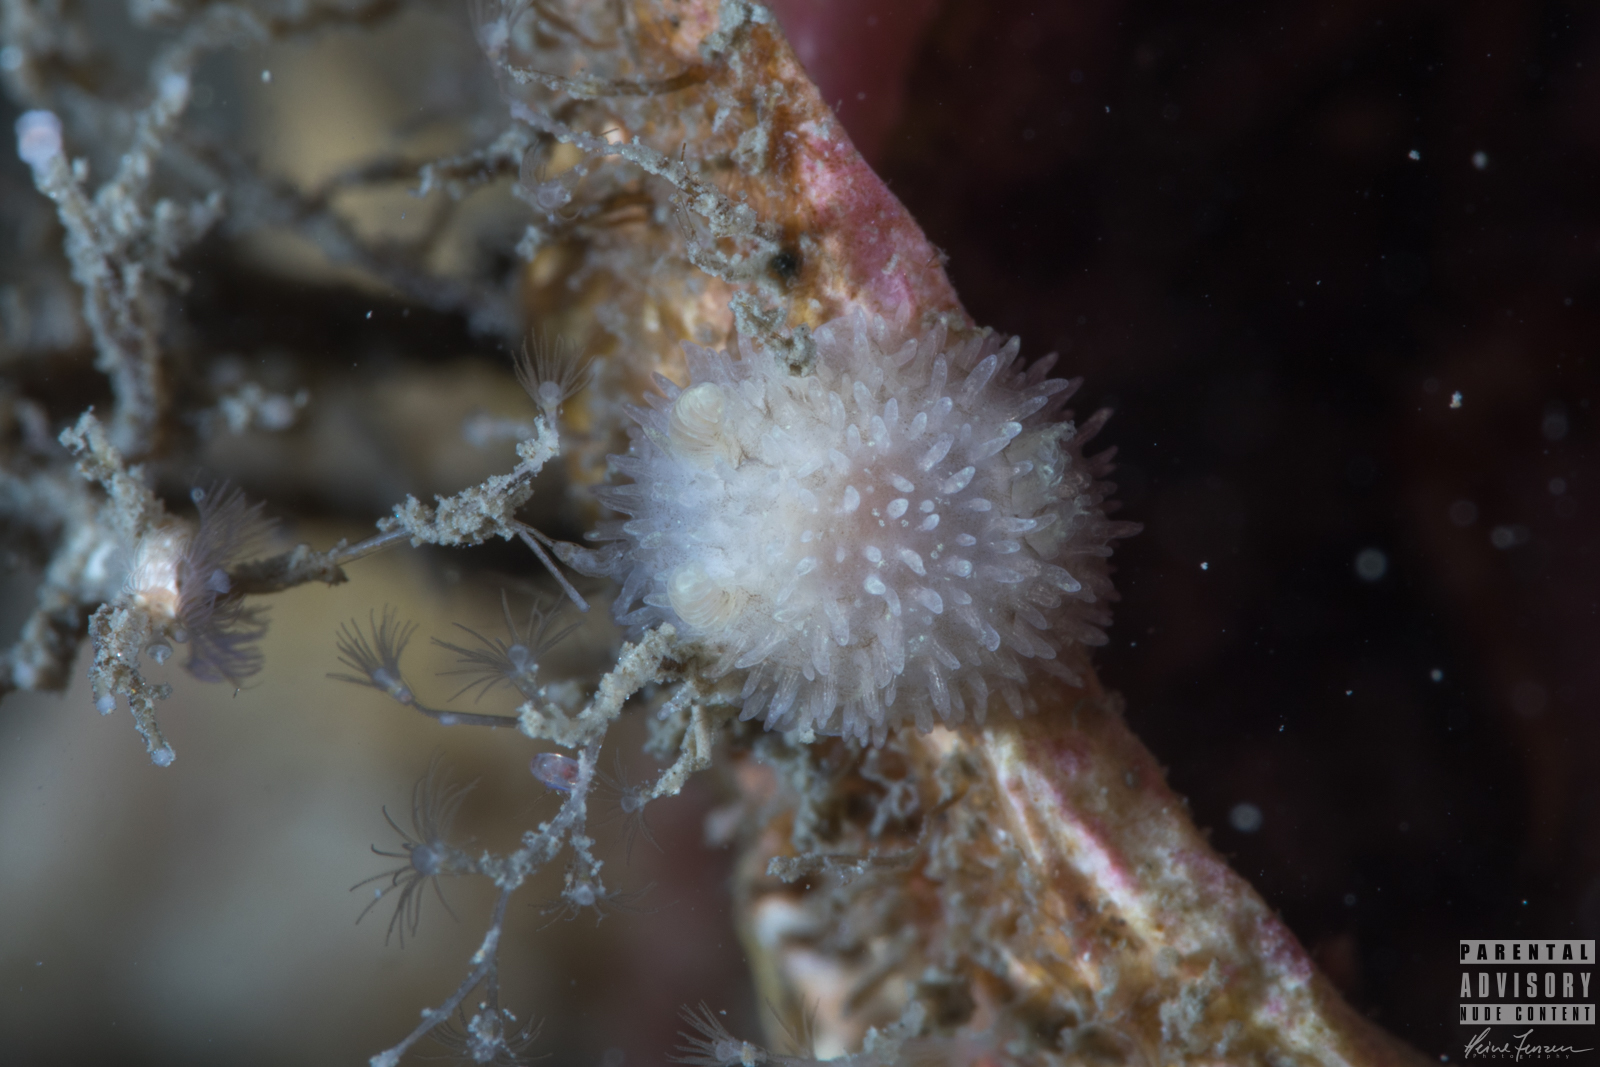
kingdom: Animalia
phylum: Mollusca
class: Gastropoda
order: Nudibranchia
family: Onchidorididae
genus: Acanthodoris
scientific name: Acanthodoris pilosa
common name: Hairy spiny doris
